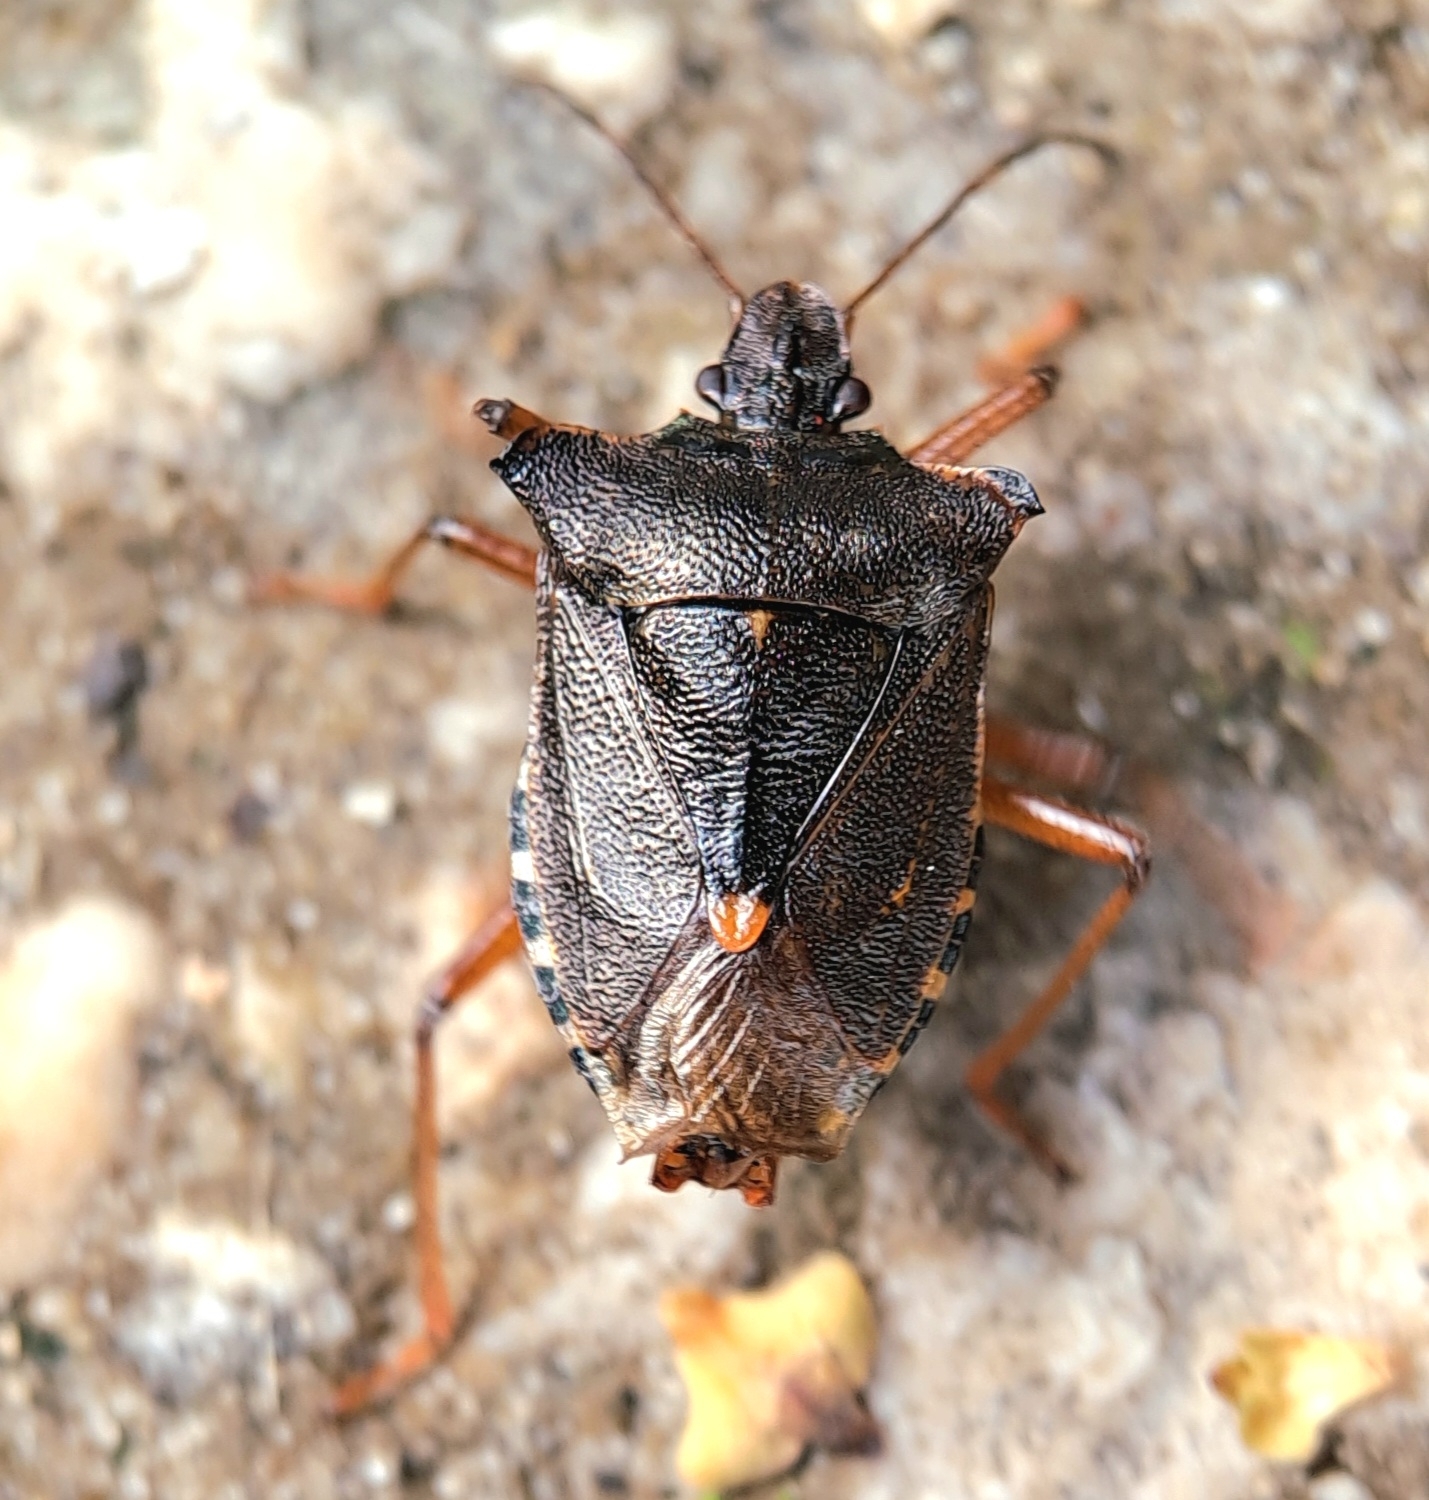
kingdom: Animalia
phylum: Arthropoda
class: Insecta
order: Hemiptera
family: Pentatomidae
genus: Pentatoma
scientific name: Pentatoma rufipes
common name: Forest bug
